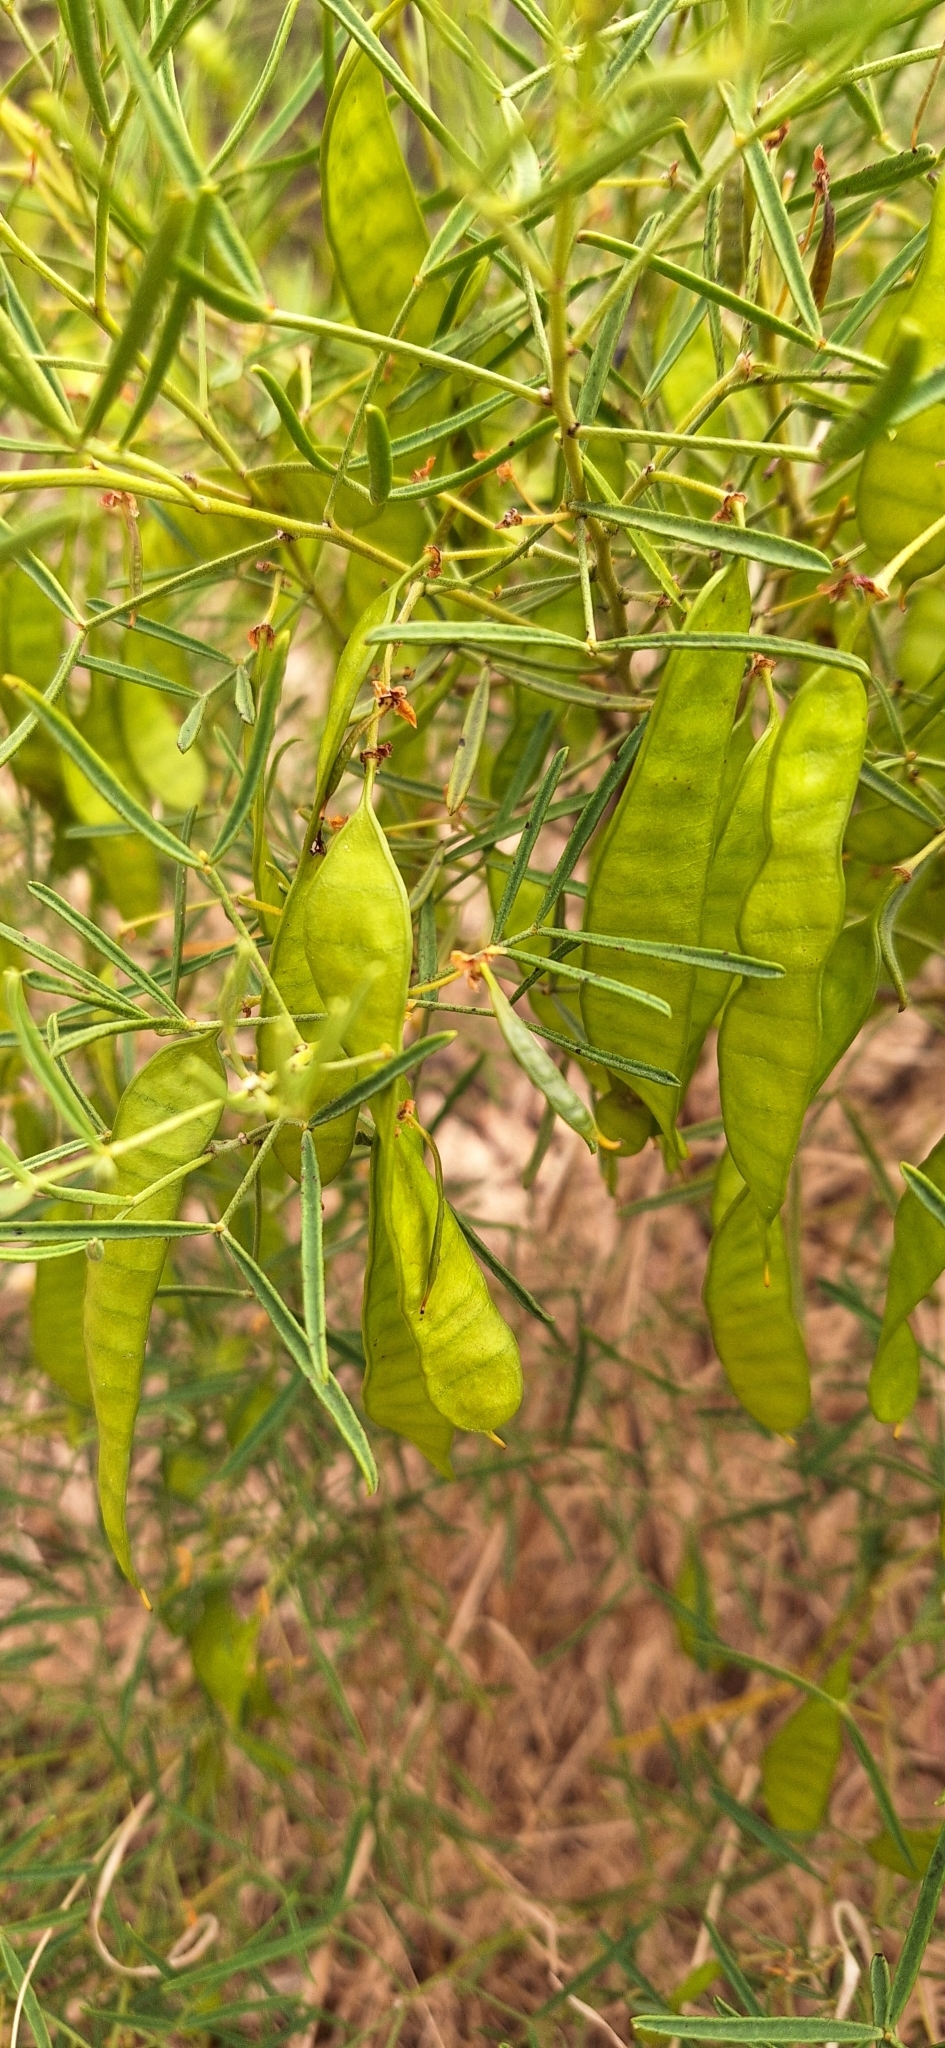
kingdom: Plantae
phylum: Tracheophyta
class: Magnoliopsida
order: Fabales
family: Fabaceae
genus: Senna
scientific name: Senna artemisioides
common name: Burnt-leaved acacia
